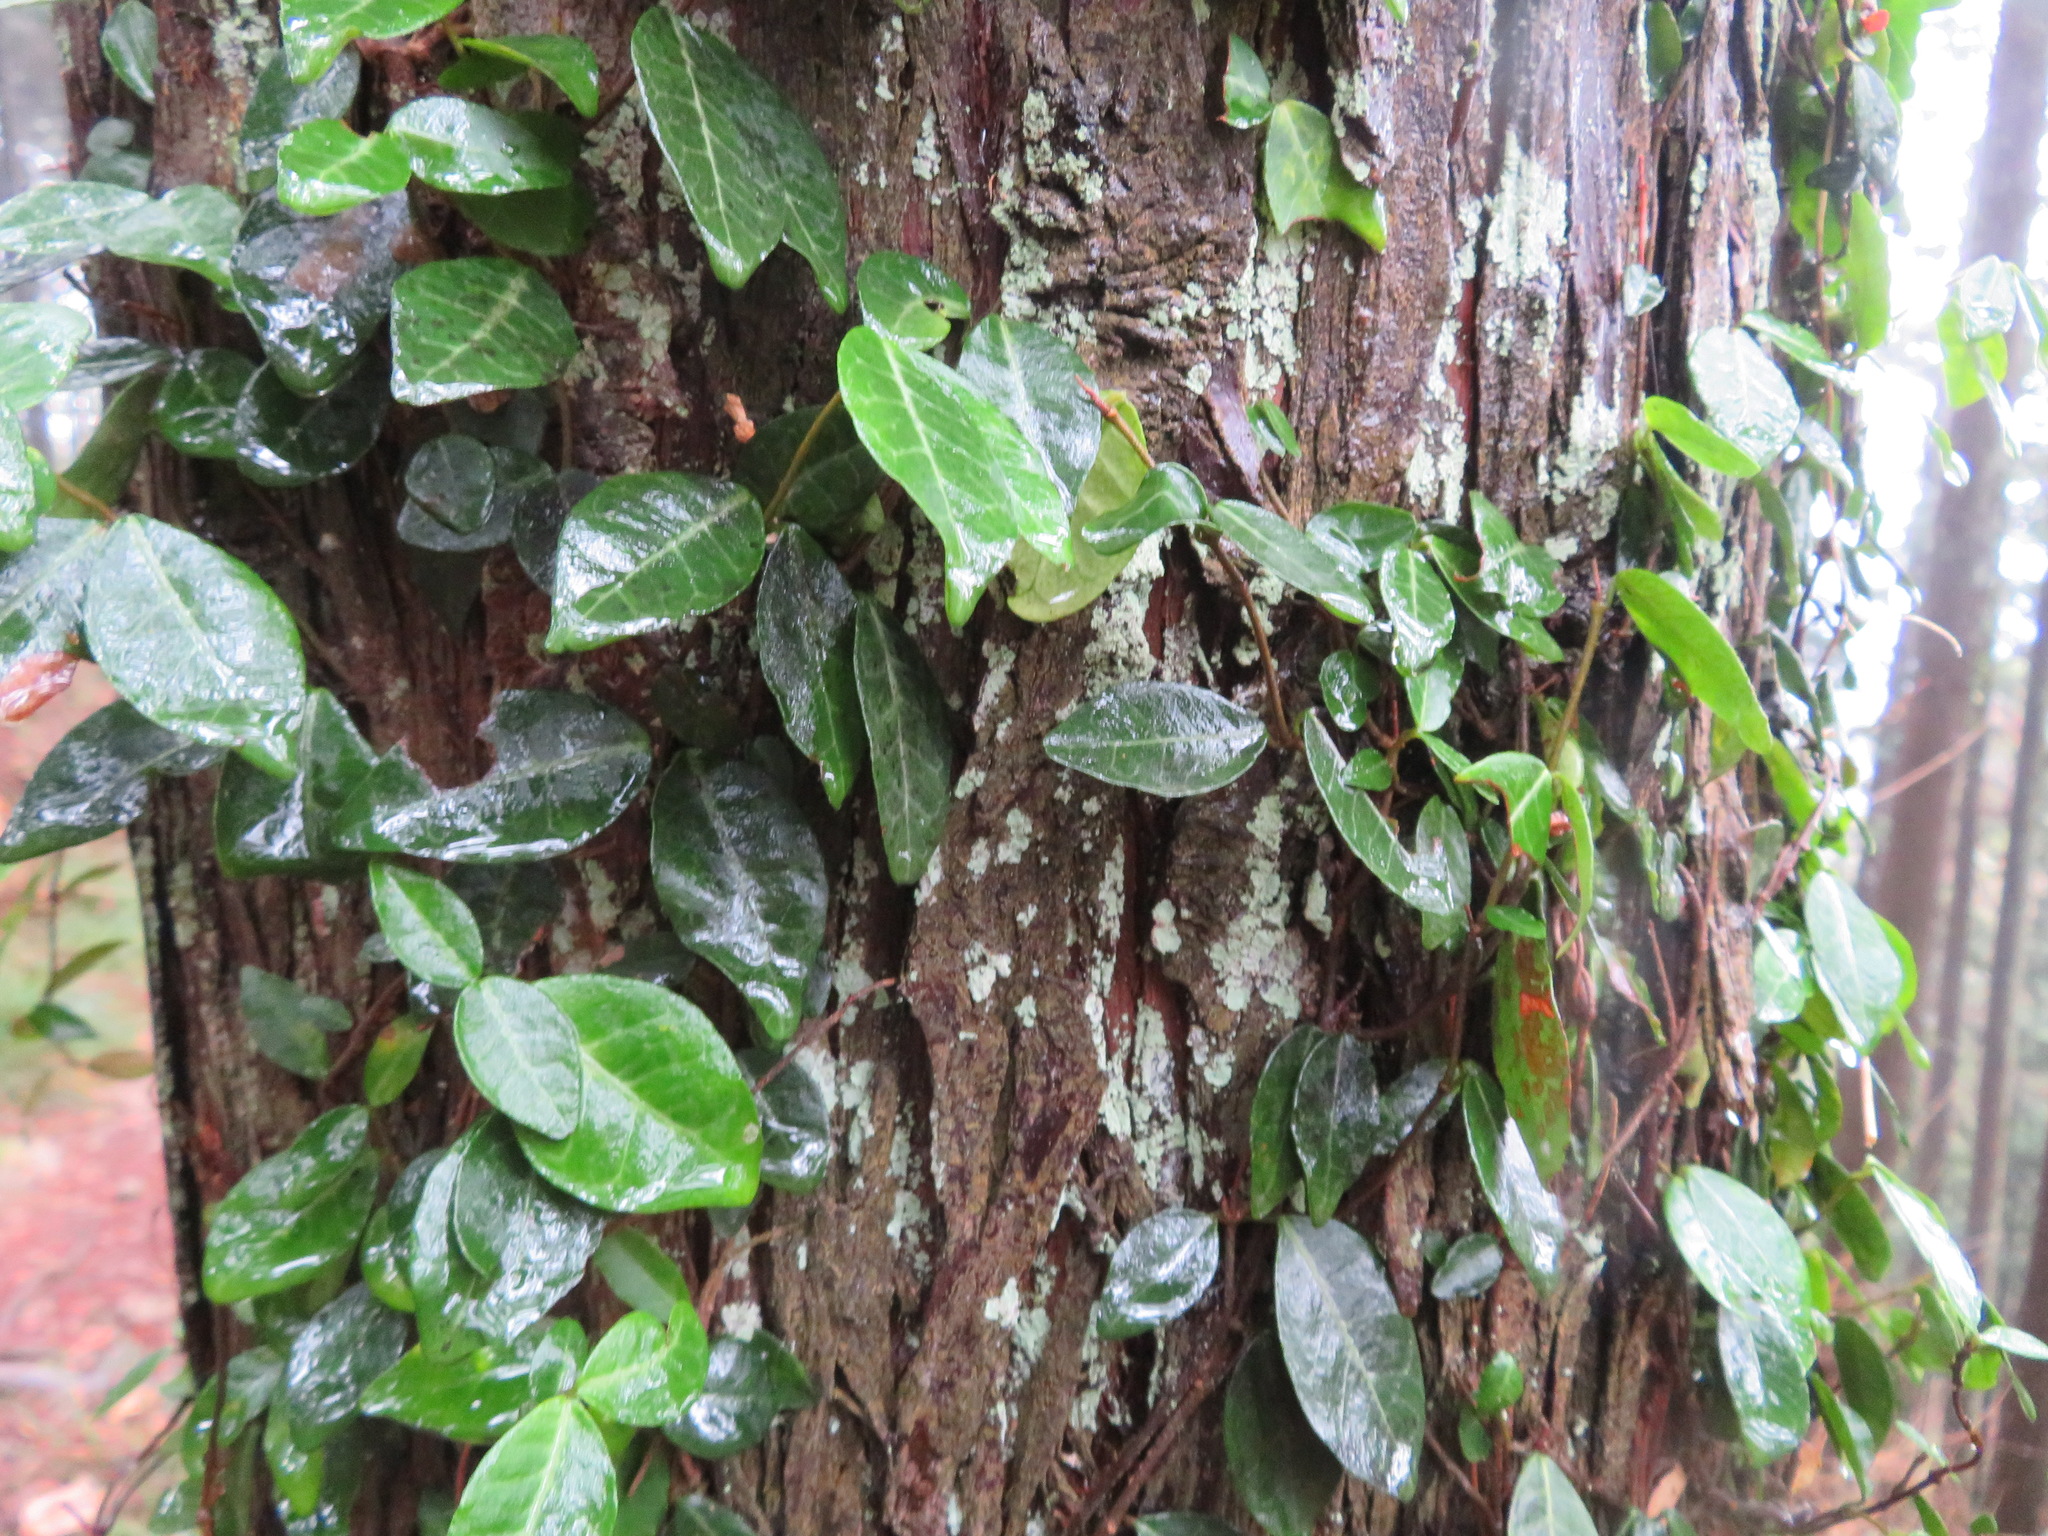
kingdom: Plantae
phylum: Tracheophyta
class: Magnoliopsida
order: Gentianales
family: Apocynaceae
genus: Trachelospermum
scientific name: Trachelospermum asiaticum
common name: Asiatic jasmine
